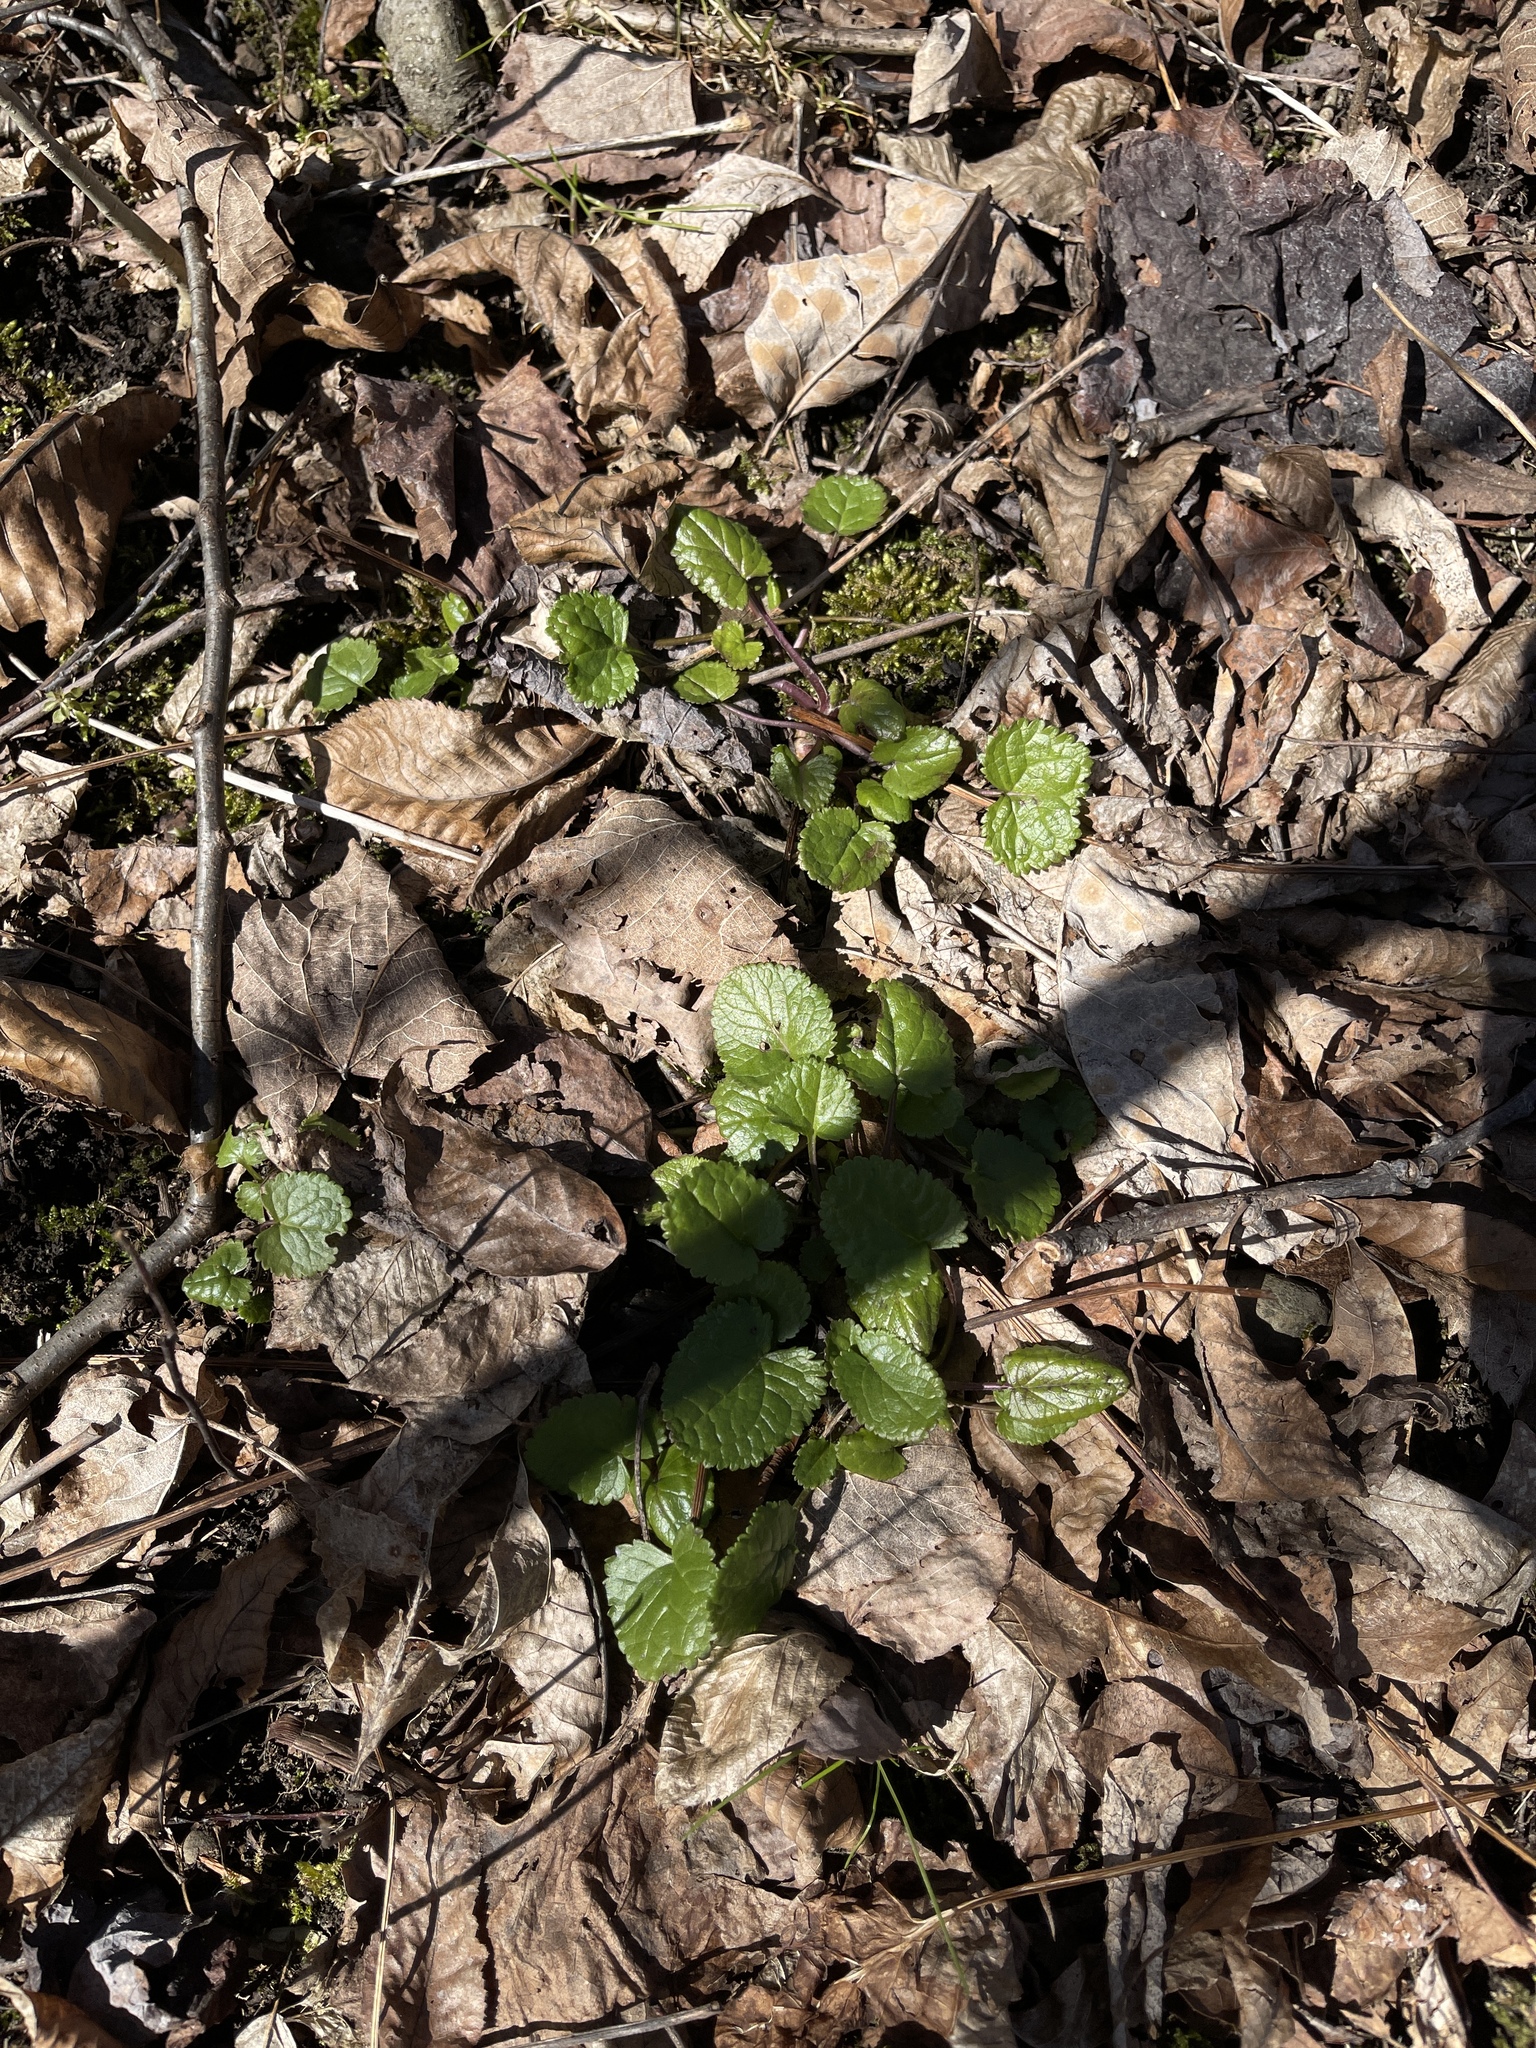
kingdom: Plantae
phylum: Tracheophyta
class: Magnoliopsida
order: Asterales
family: Asteraceae
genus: Packera
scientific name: Packera aurea
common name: Golden groundsel
